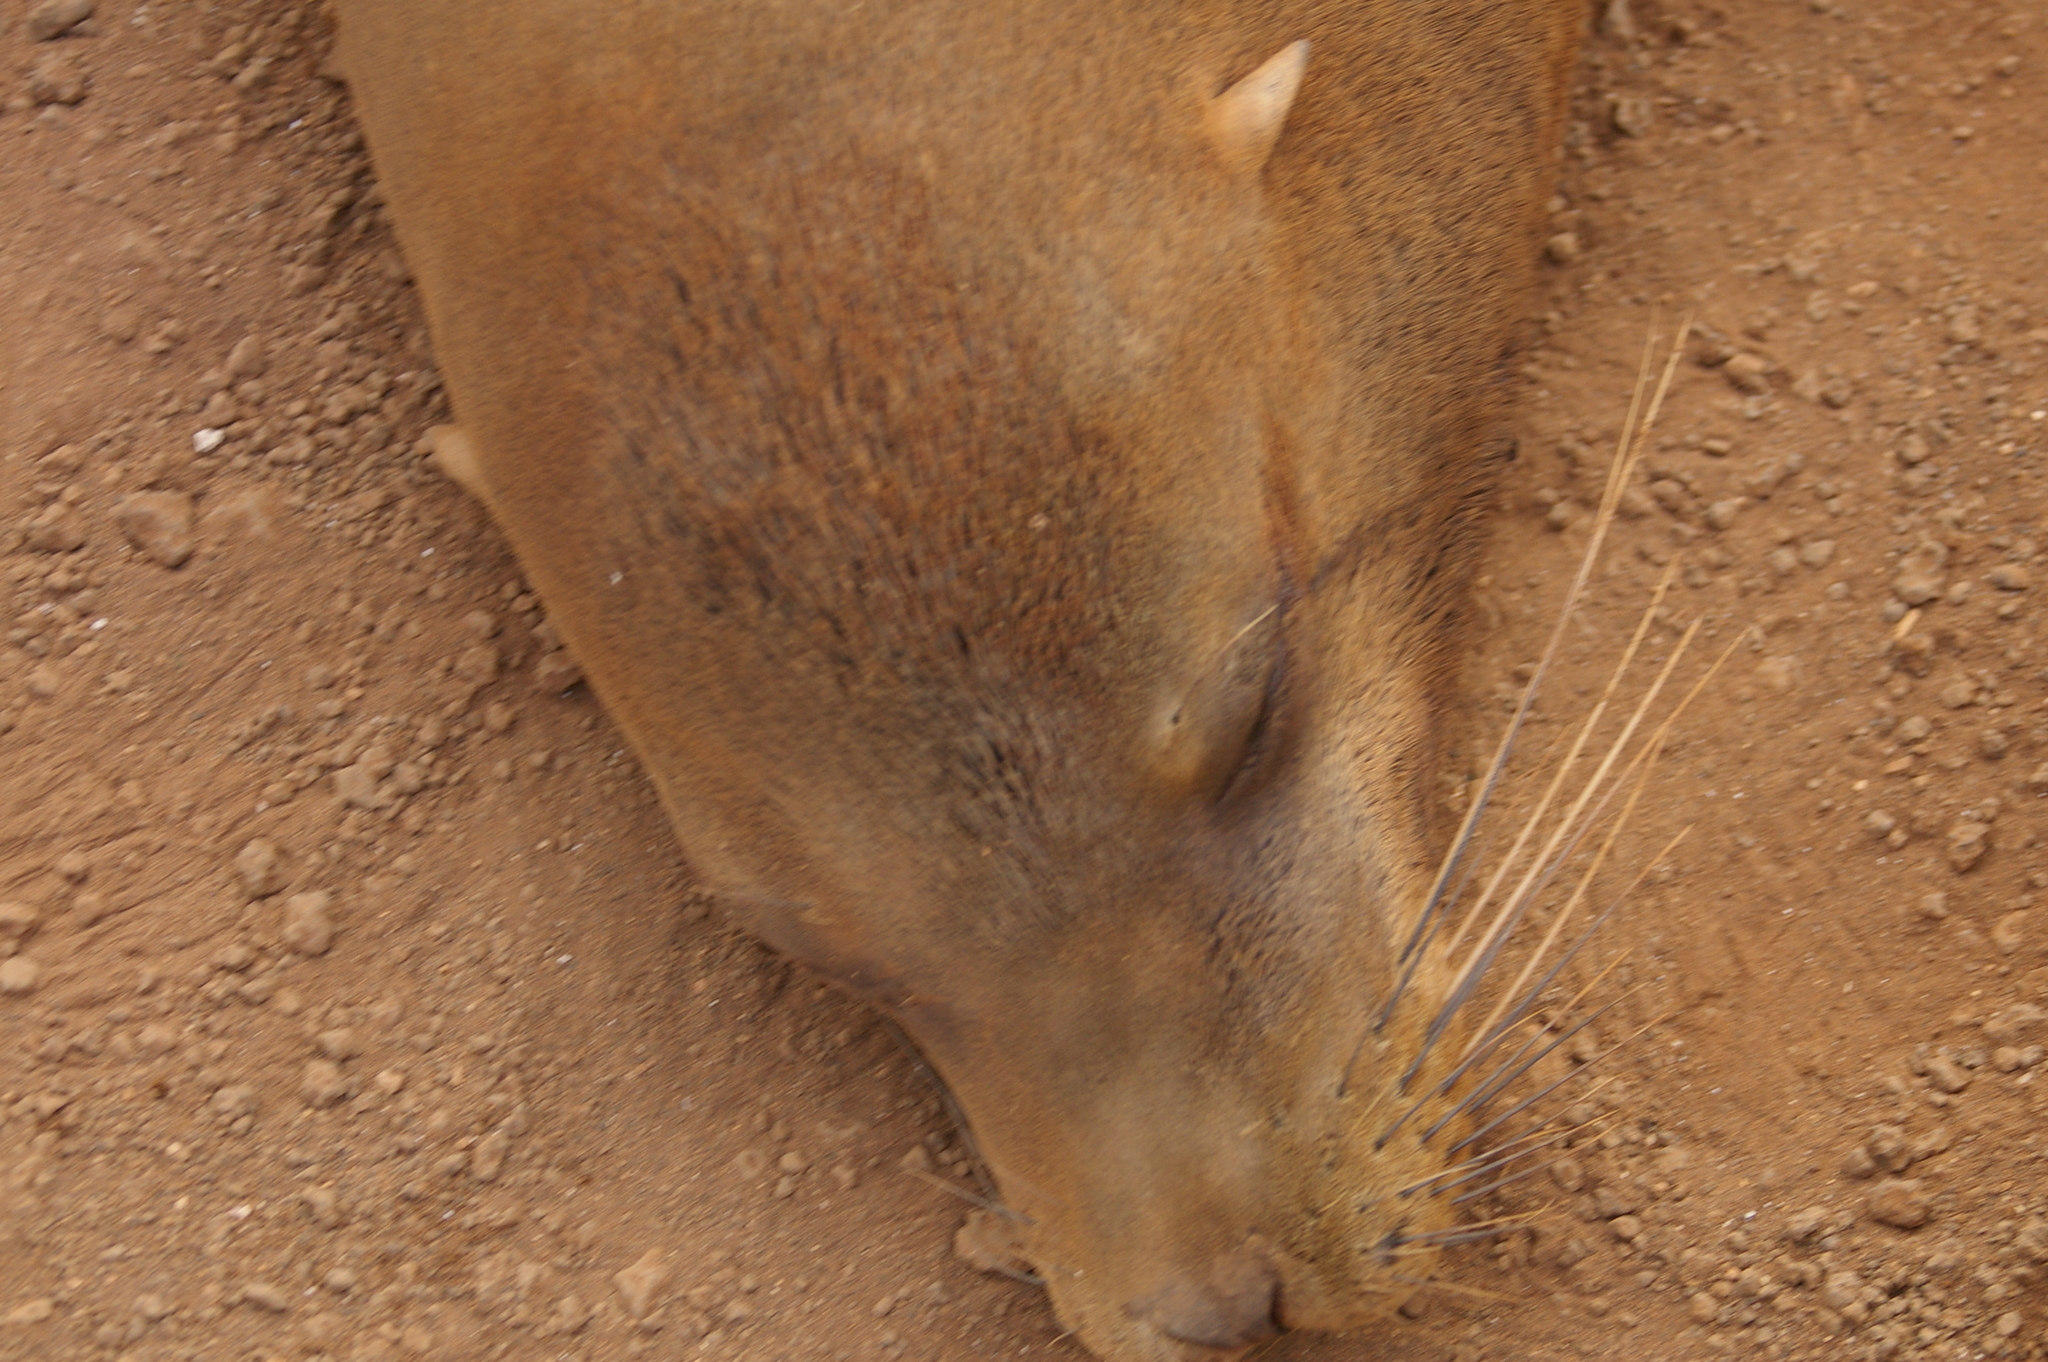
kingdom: Animalia
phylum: Chordata
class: Mammalia
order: Carnivora
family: Otariidae
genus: Zalophus
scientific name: Zalophus wollebaeki
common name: Galapagos sea lion
